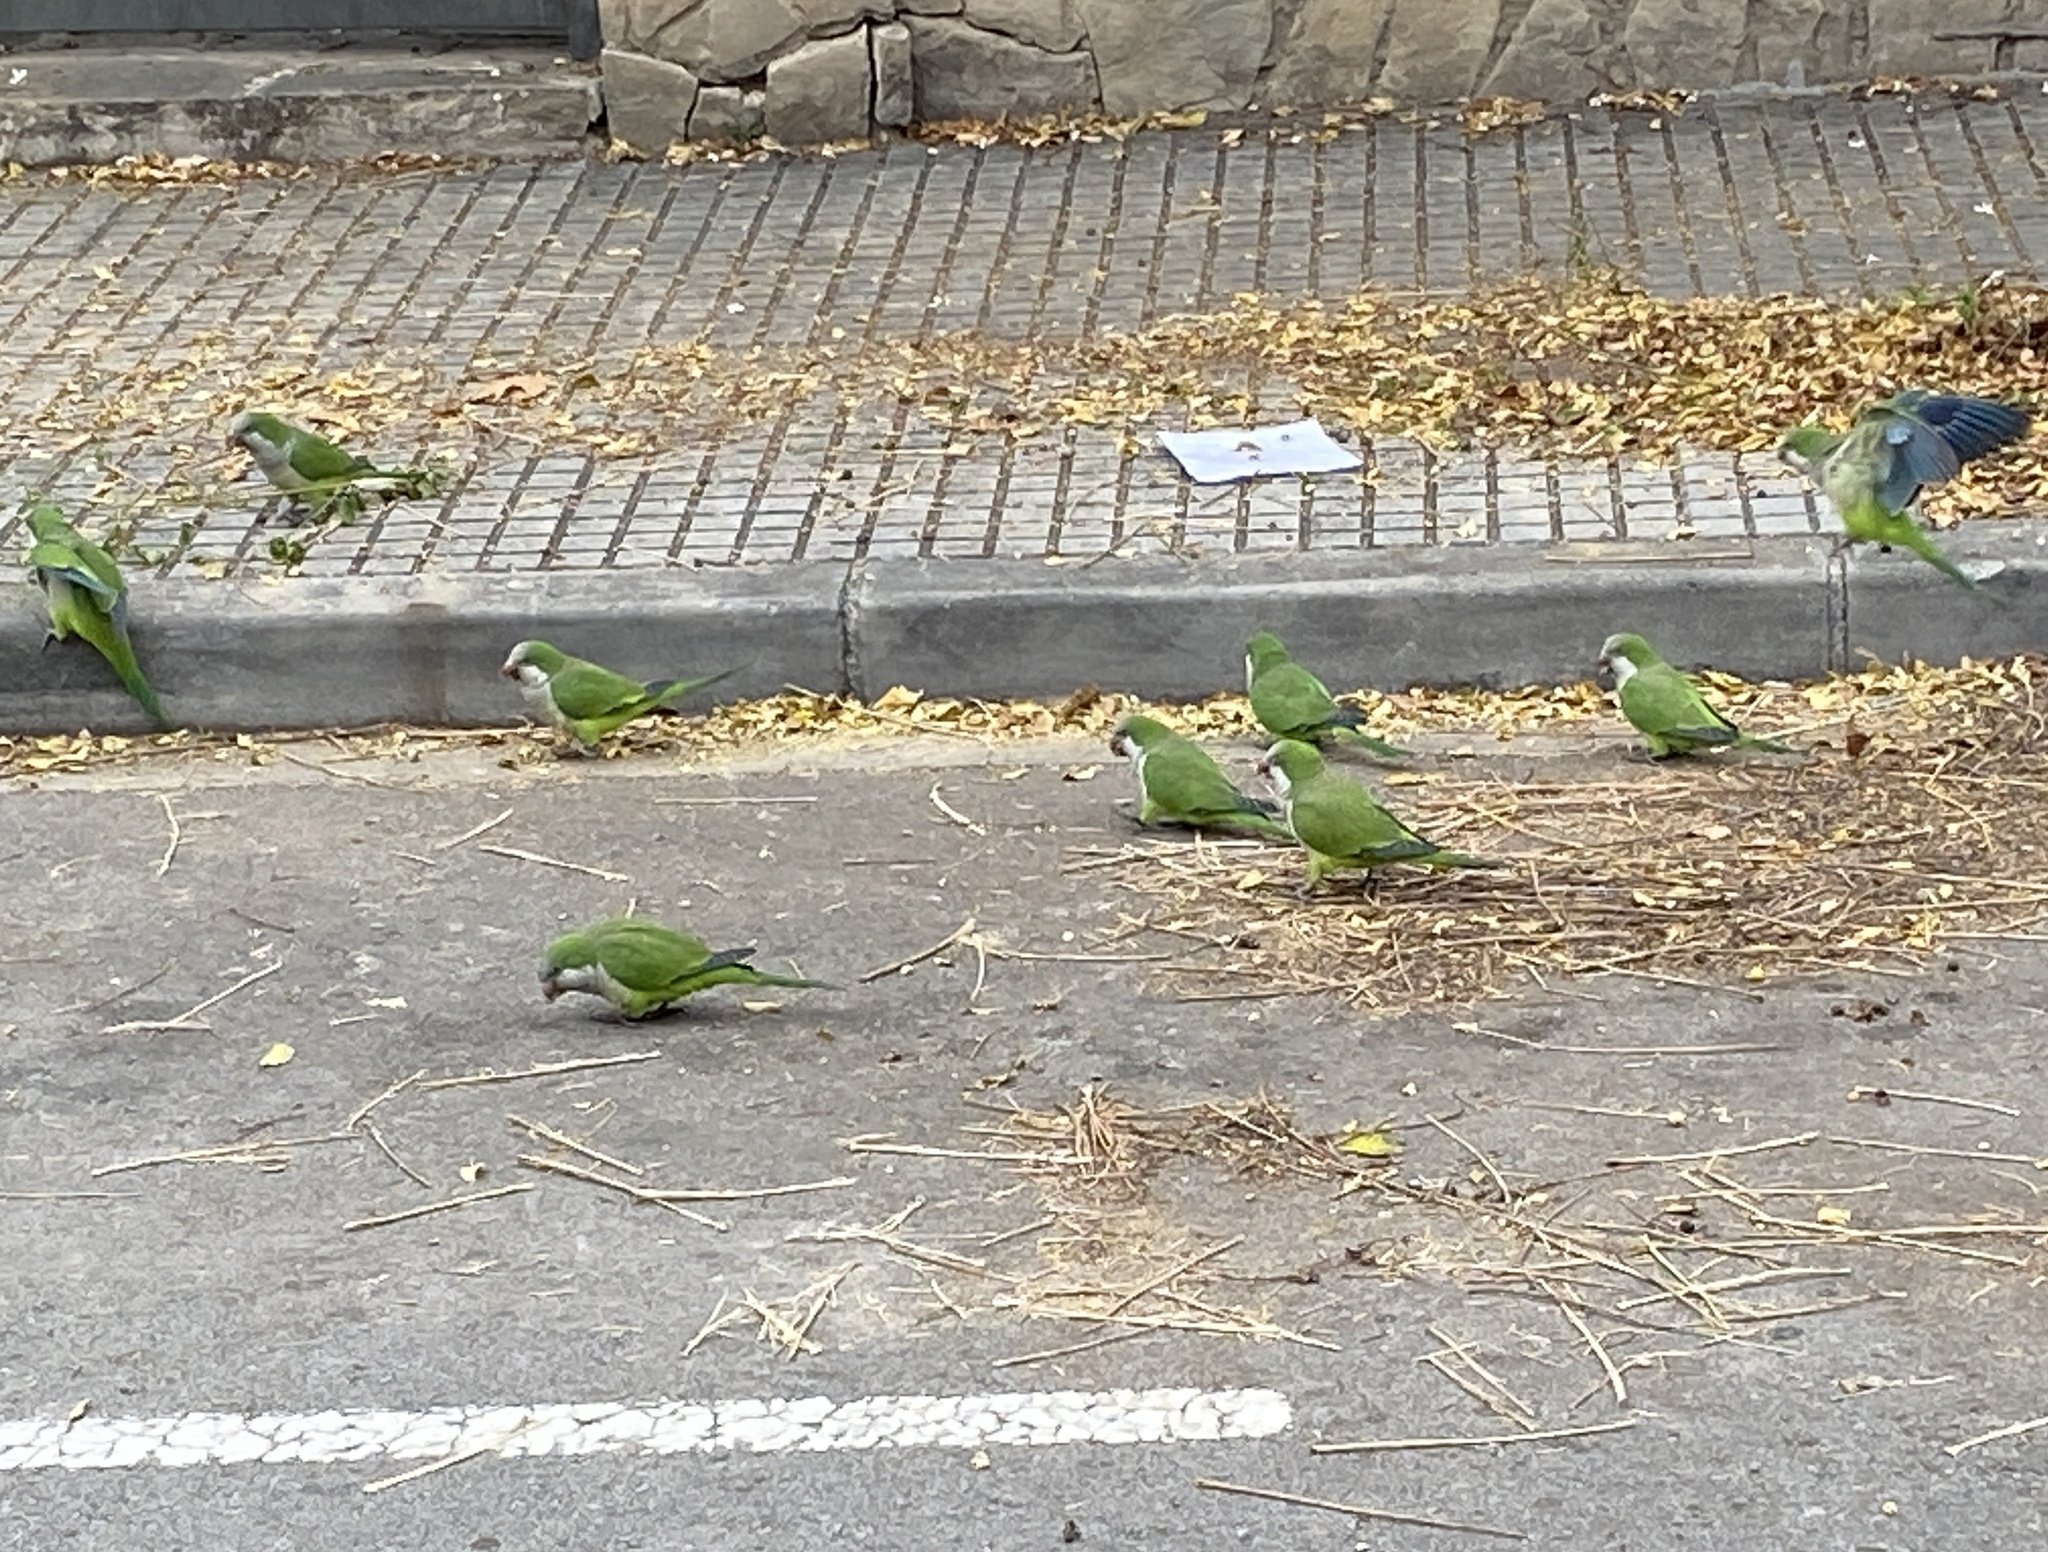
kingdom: Animalia
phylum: Chordata
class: Aves
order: Psittaciformes
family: Psittacidae
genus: Myiopsitta
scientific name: Myiopsitta monachus
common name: Monk parakeet
